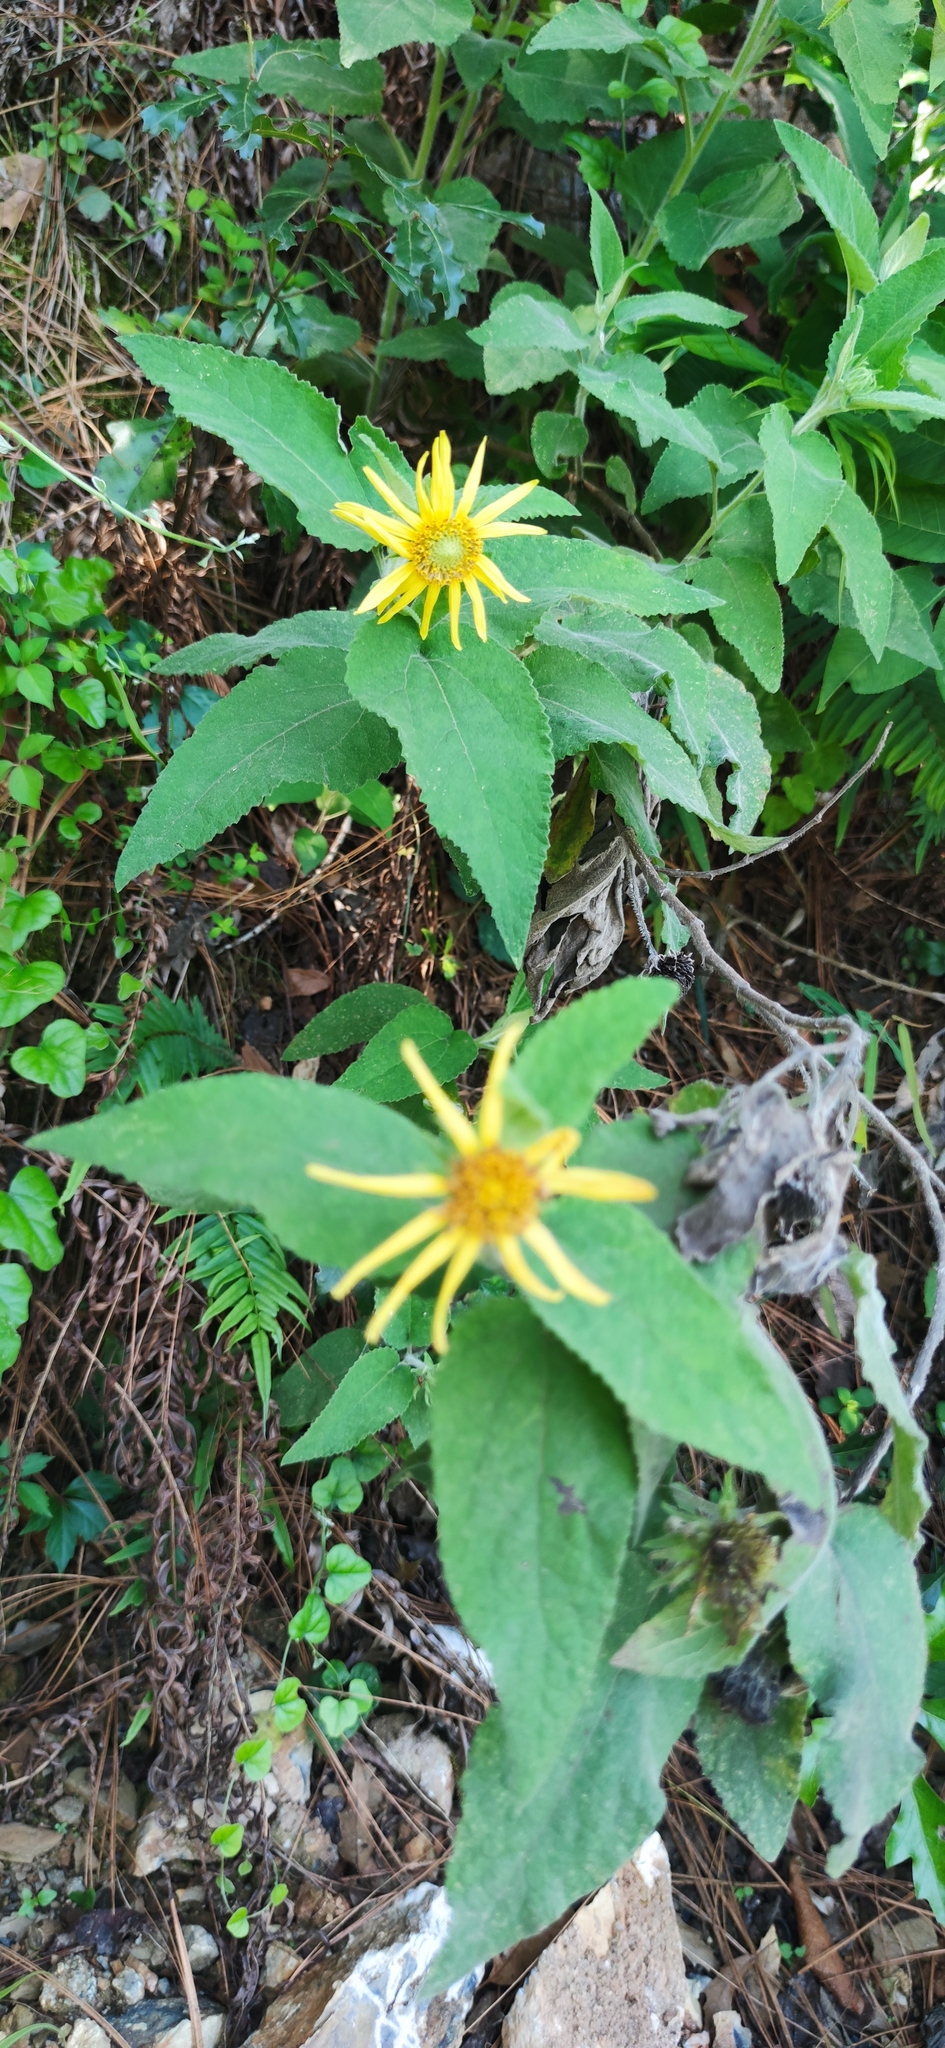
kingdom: Plantae
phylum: Tracheophyta
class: Magnoliopsida
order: Asterales
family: Asteraceae
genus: Vigethia
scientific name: Vigethia mexicana
